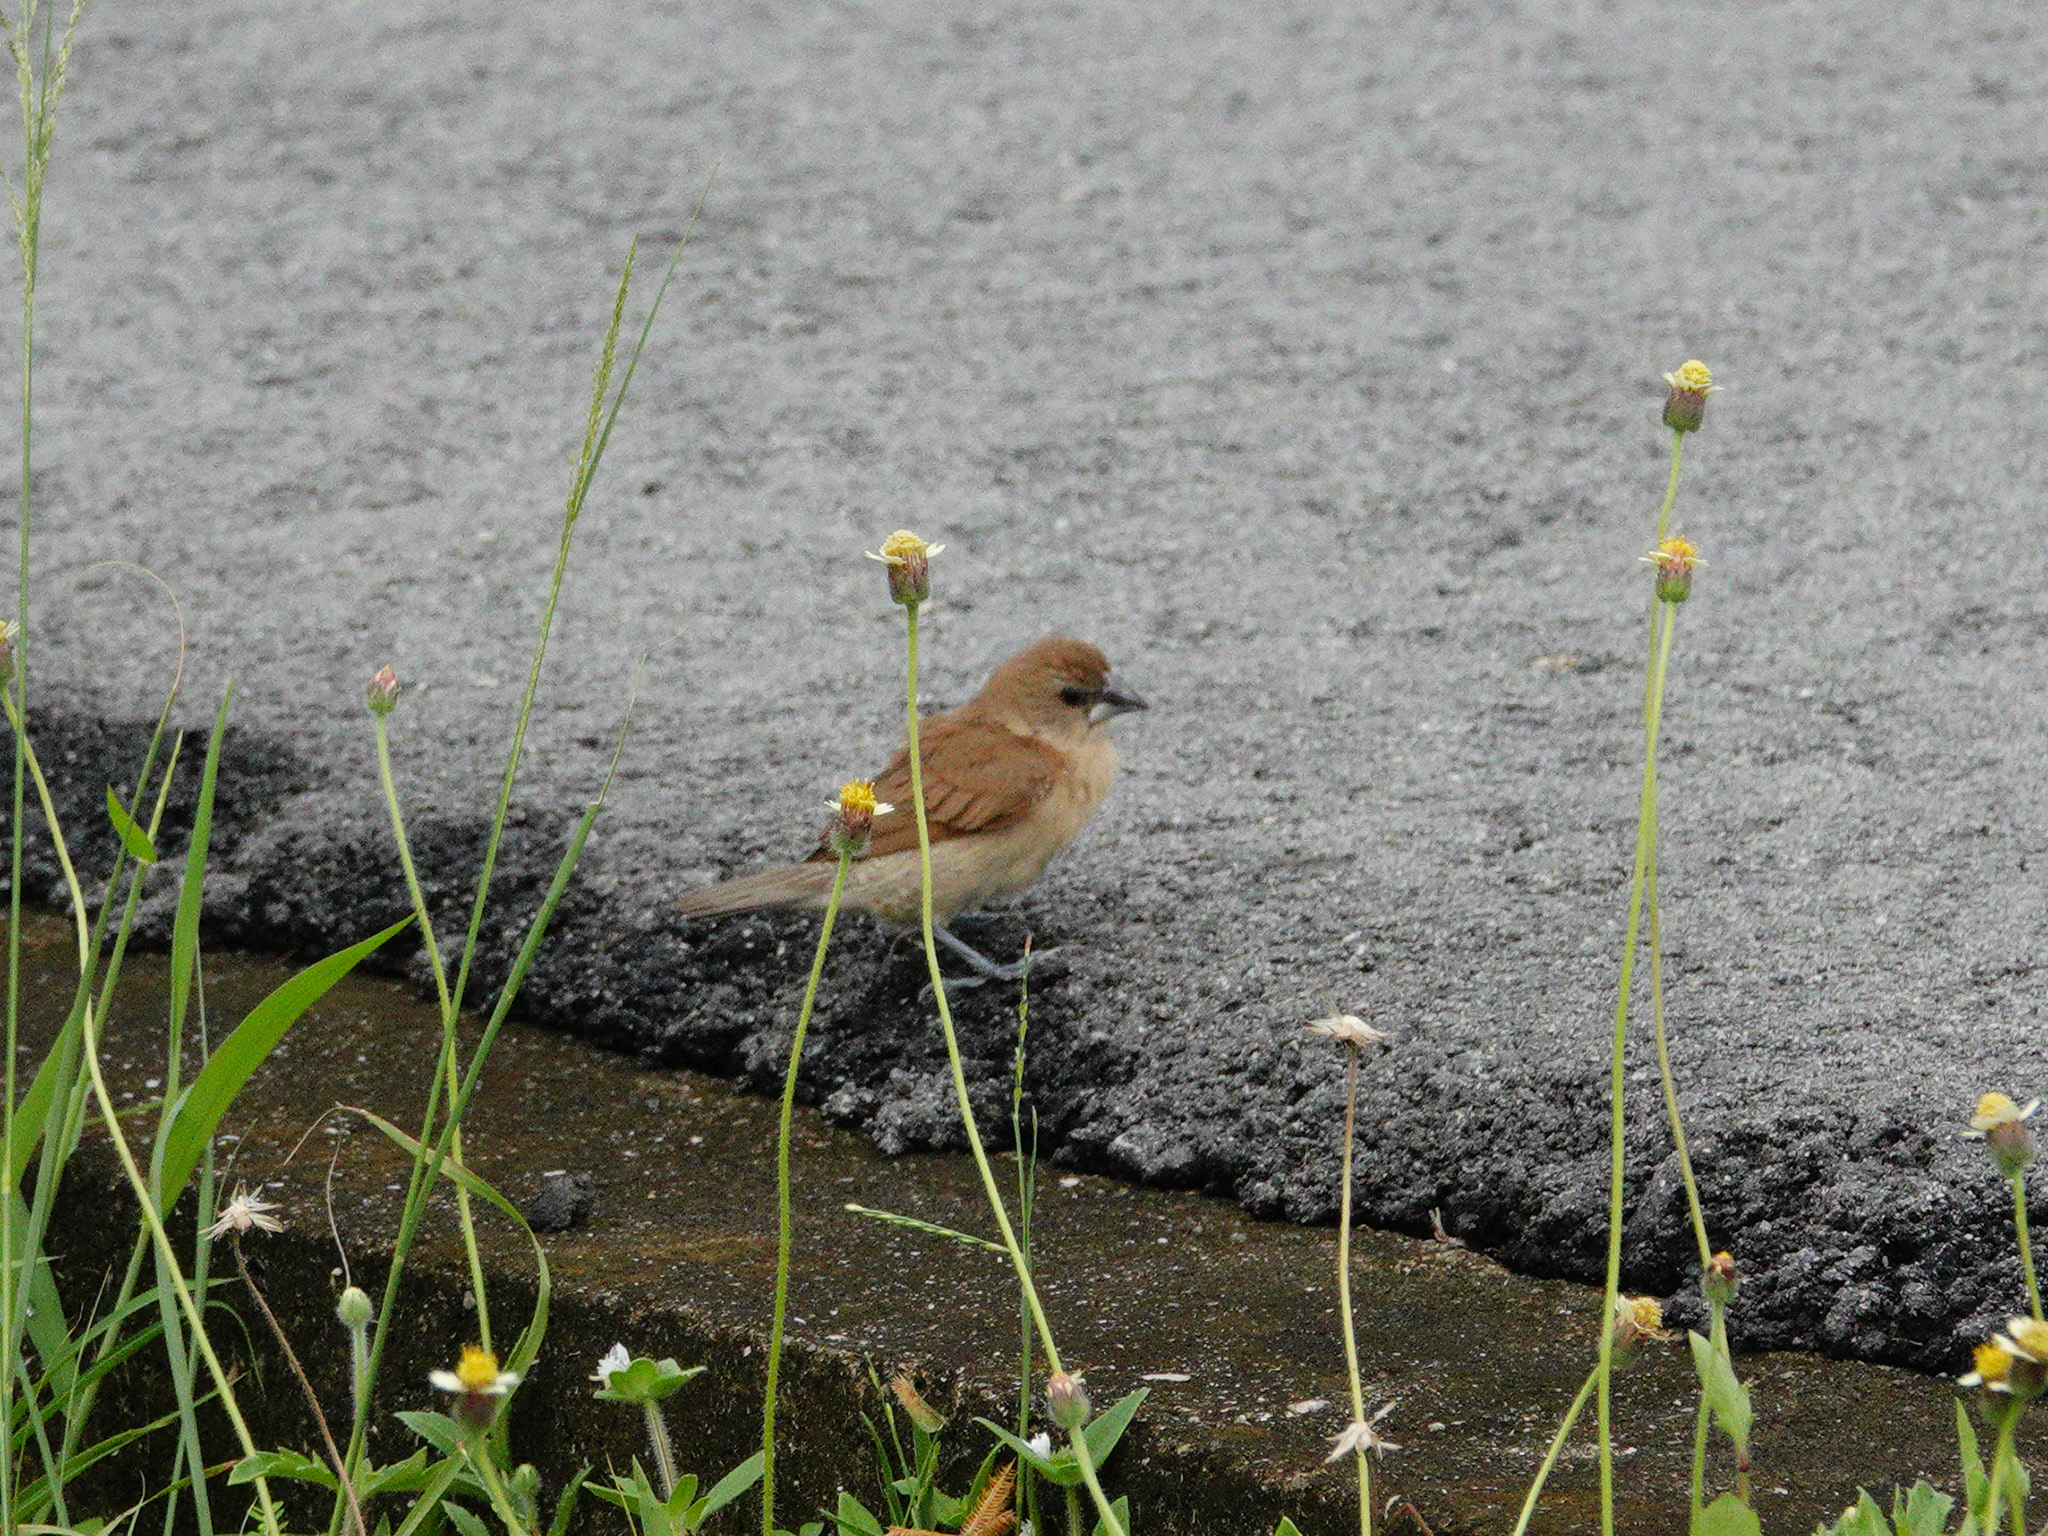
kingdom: Animalia
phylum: Chordata
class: Aves
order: Passeriformes
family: Estrildidae
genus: Lonchura
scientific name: Lonchura punctulata
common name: Scaly-breasted munia
